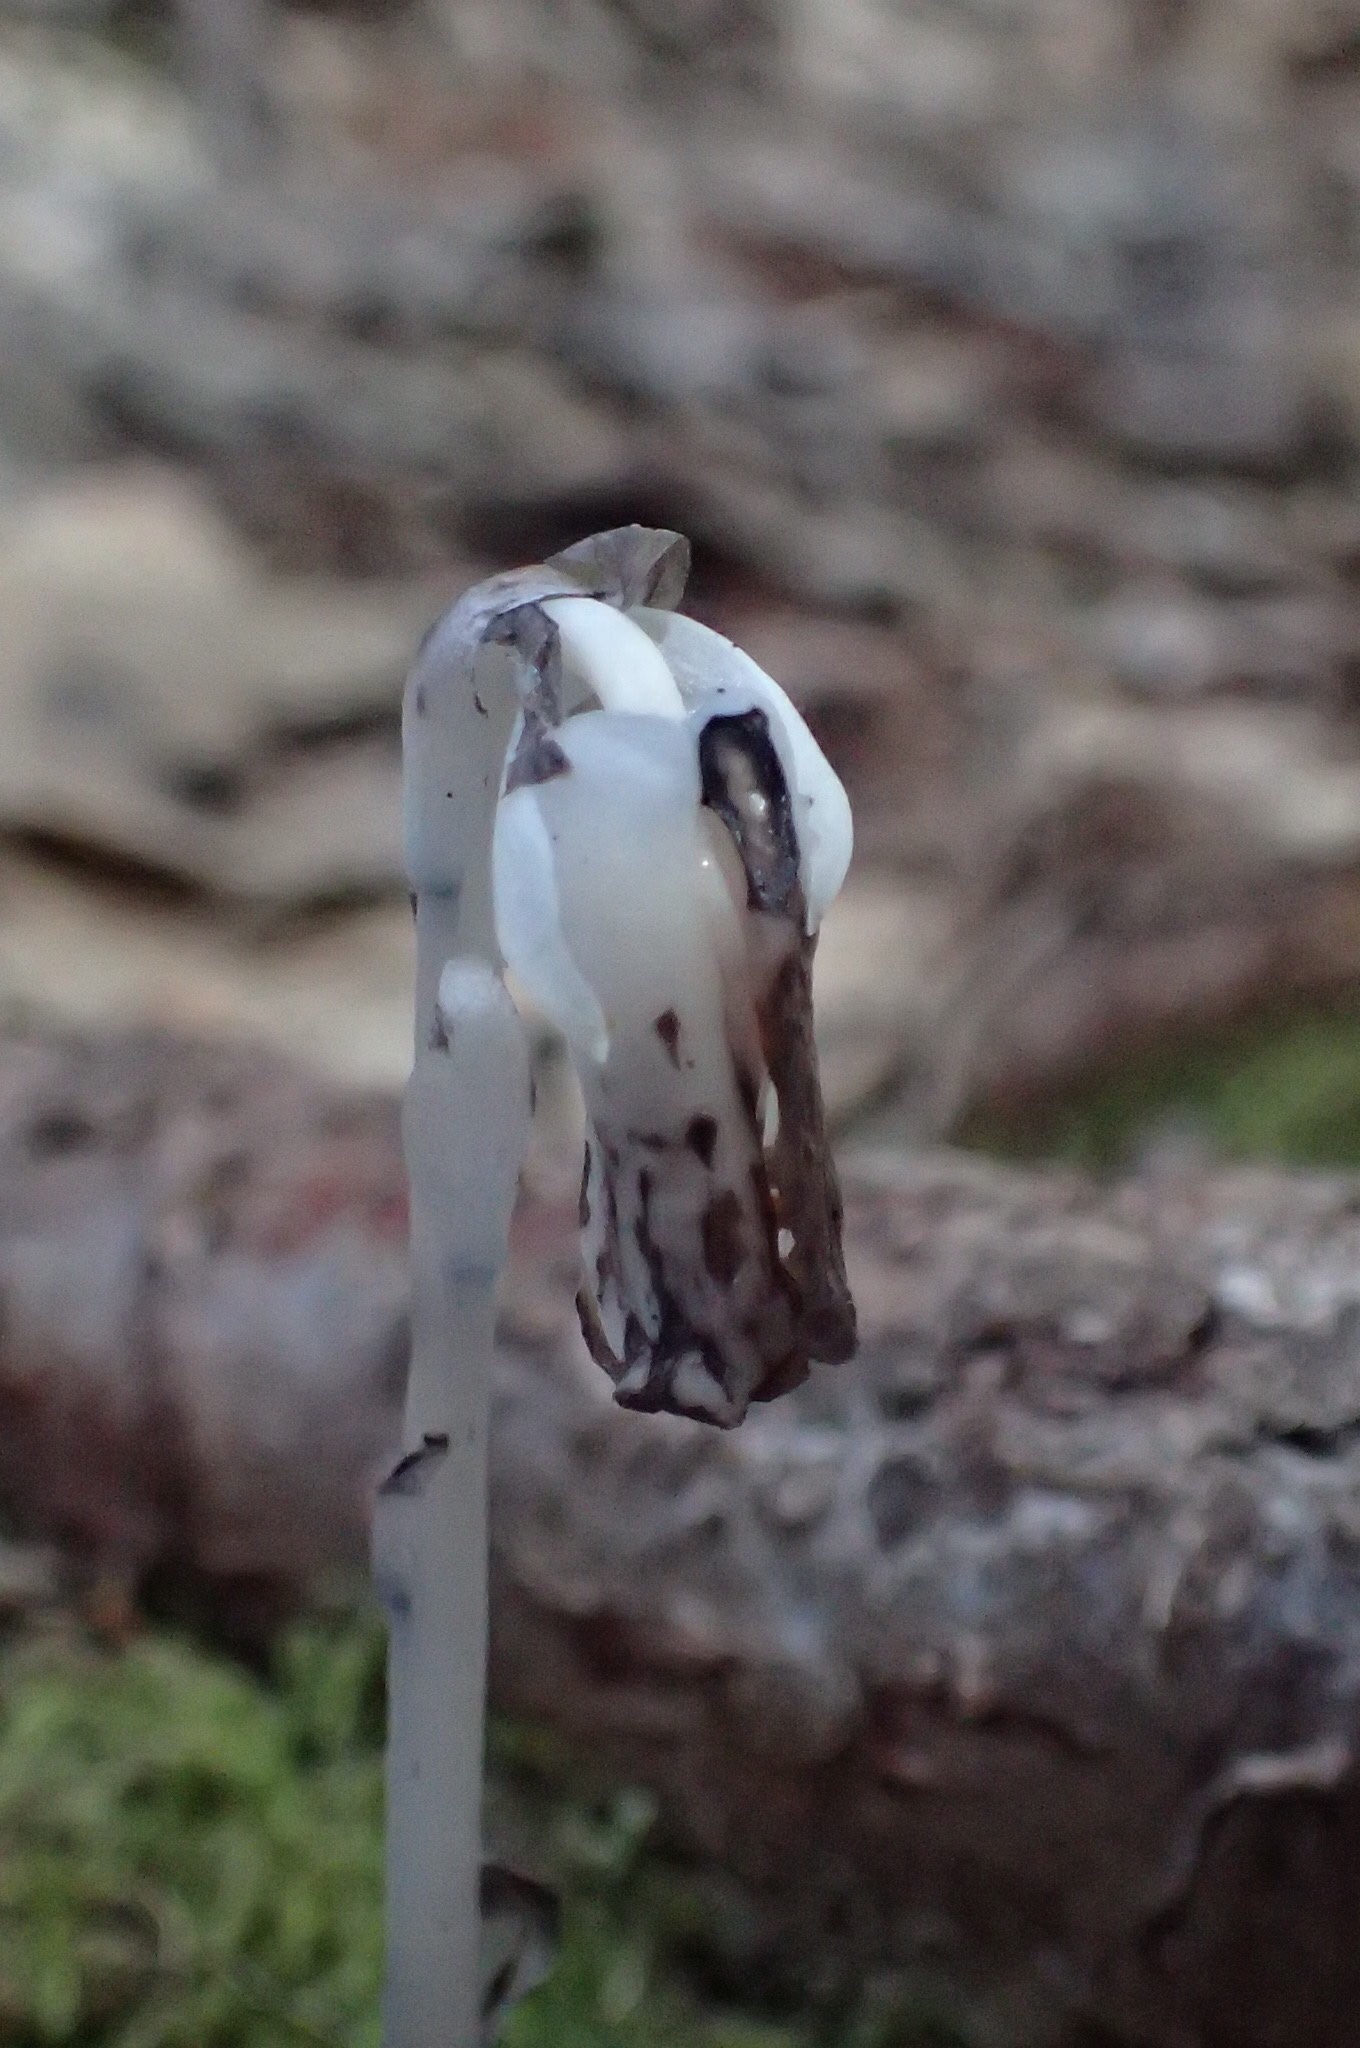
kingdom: Plantae
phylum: Tracheophyta
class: Magnoliopsida
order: Ericales
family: Ericaceae
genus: Monotropa
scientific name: Monotropa uniflora
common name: Convulsion root
